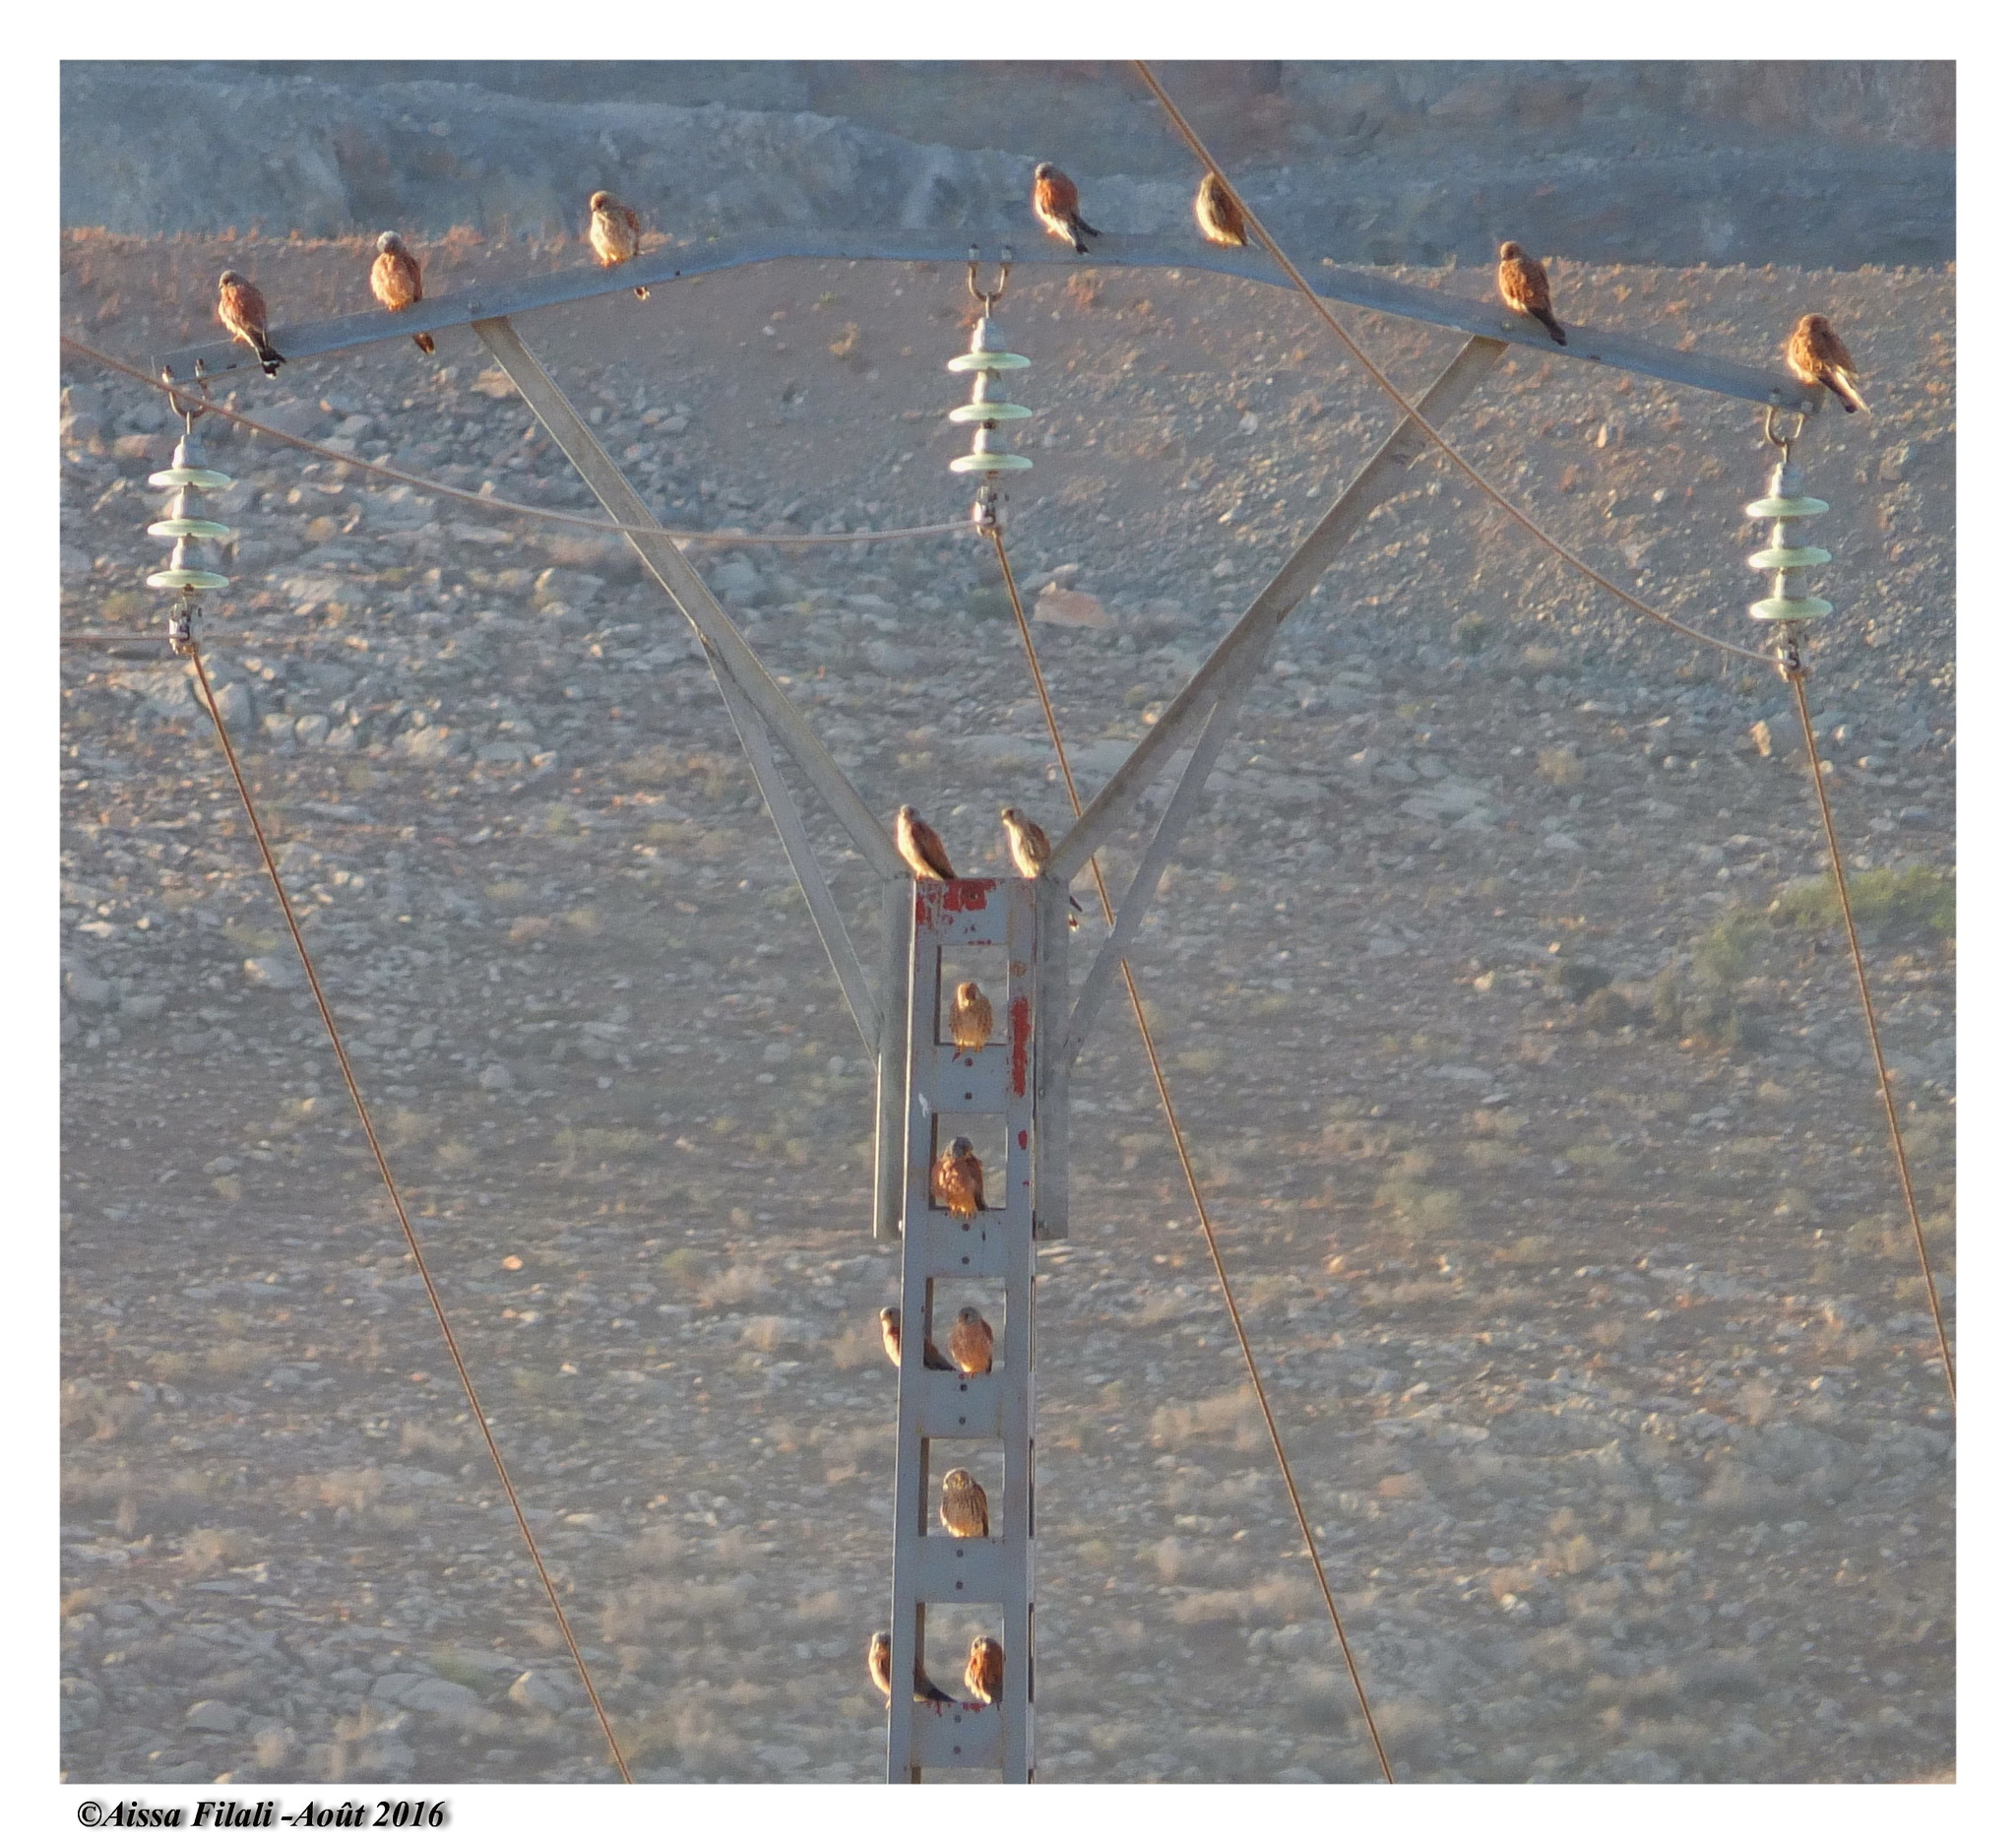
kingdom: Animalia
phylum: Chordata
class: Aves
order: Falconiformes
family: Falconidae
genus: Falco
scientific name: Falco naumanni
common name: Lesser kestrel
